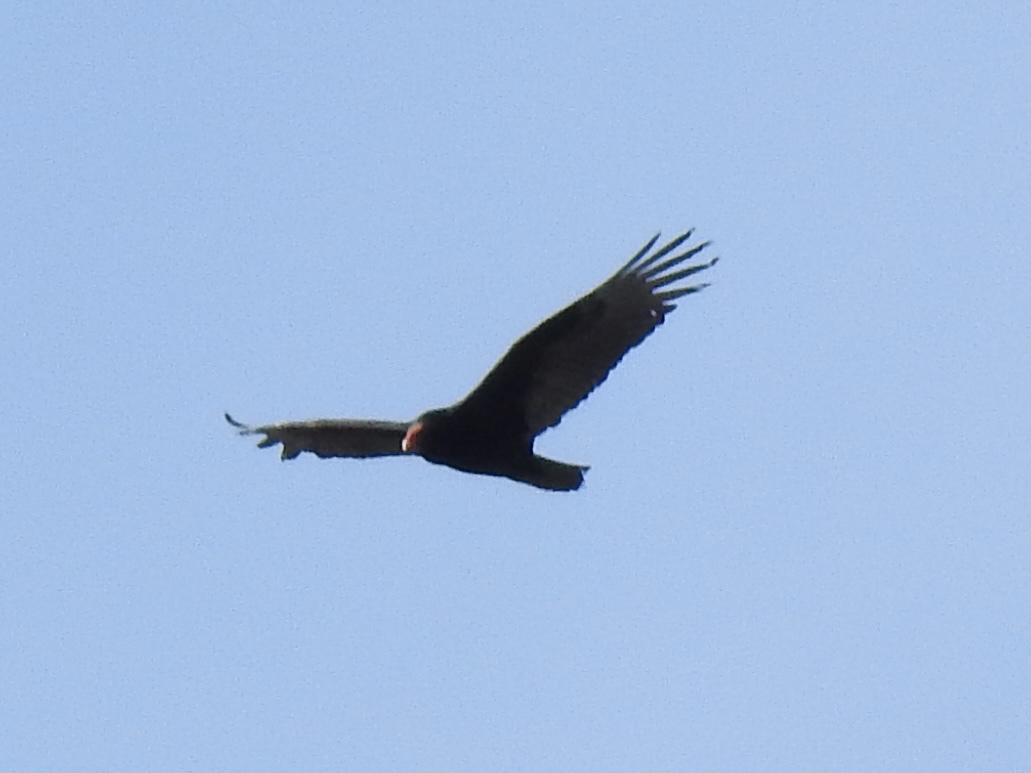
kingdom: Animalia
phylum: Chordata
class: Aves
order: Accipitriformes
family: Cathartidae
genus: Cathartes
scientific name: Cathartes aura
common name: Turkey vulture
